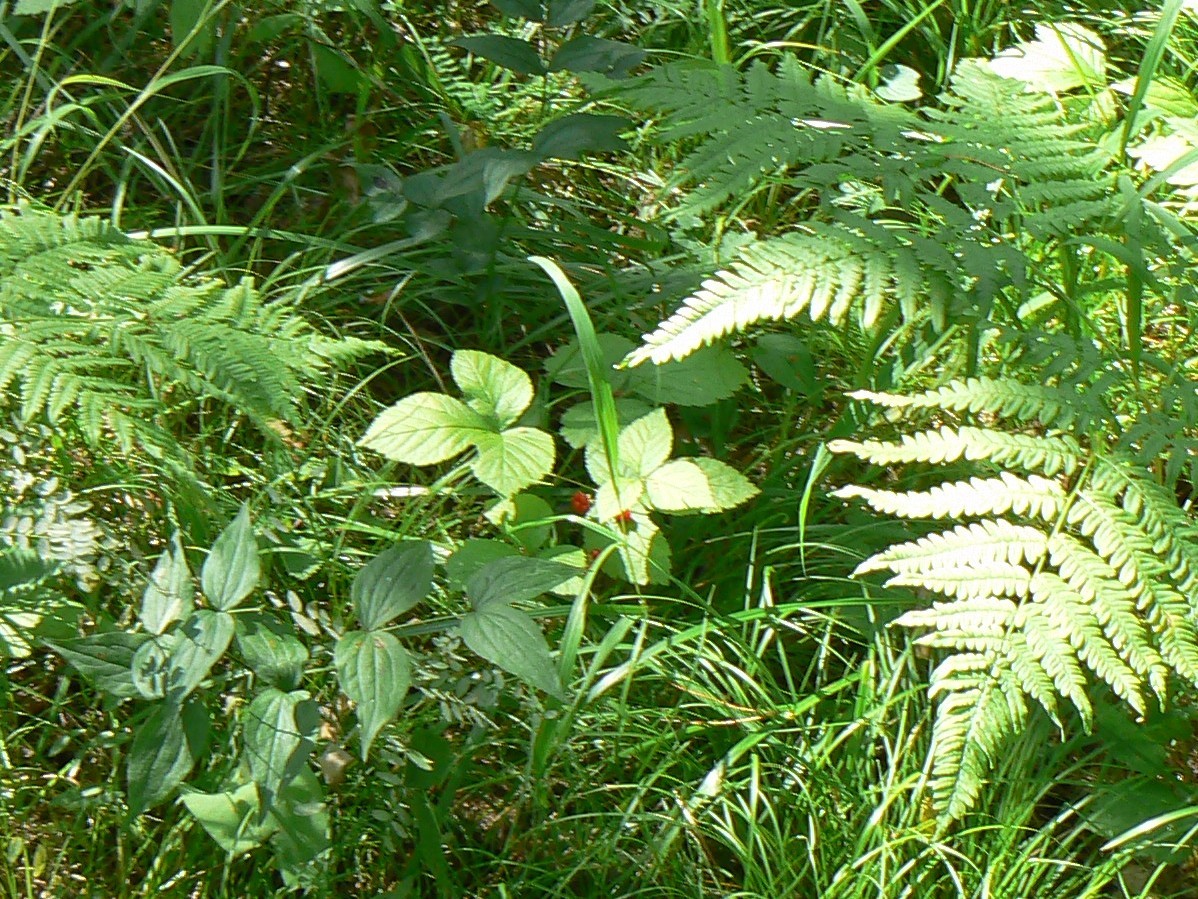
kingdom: Plantae
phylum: Tracheophyta
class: Magnoliopsida
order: Rosales
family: Rosaceae
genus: Rubus
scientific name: Rubus saxatilis
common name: Stone bramble
